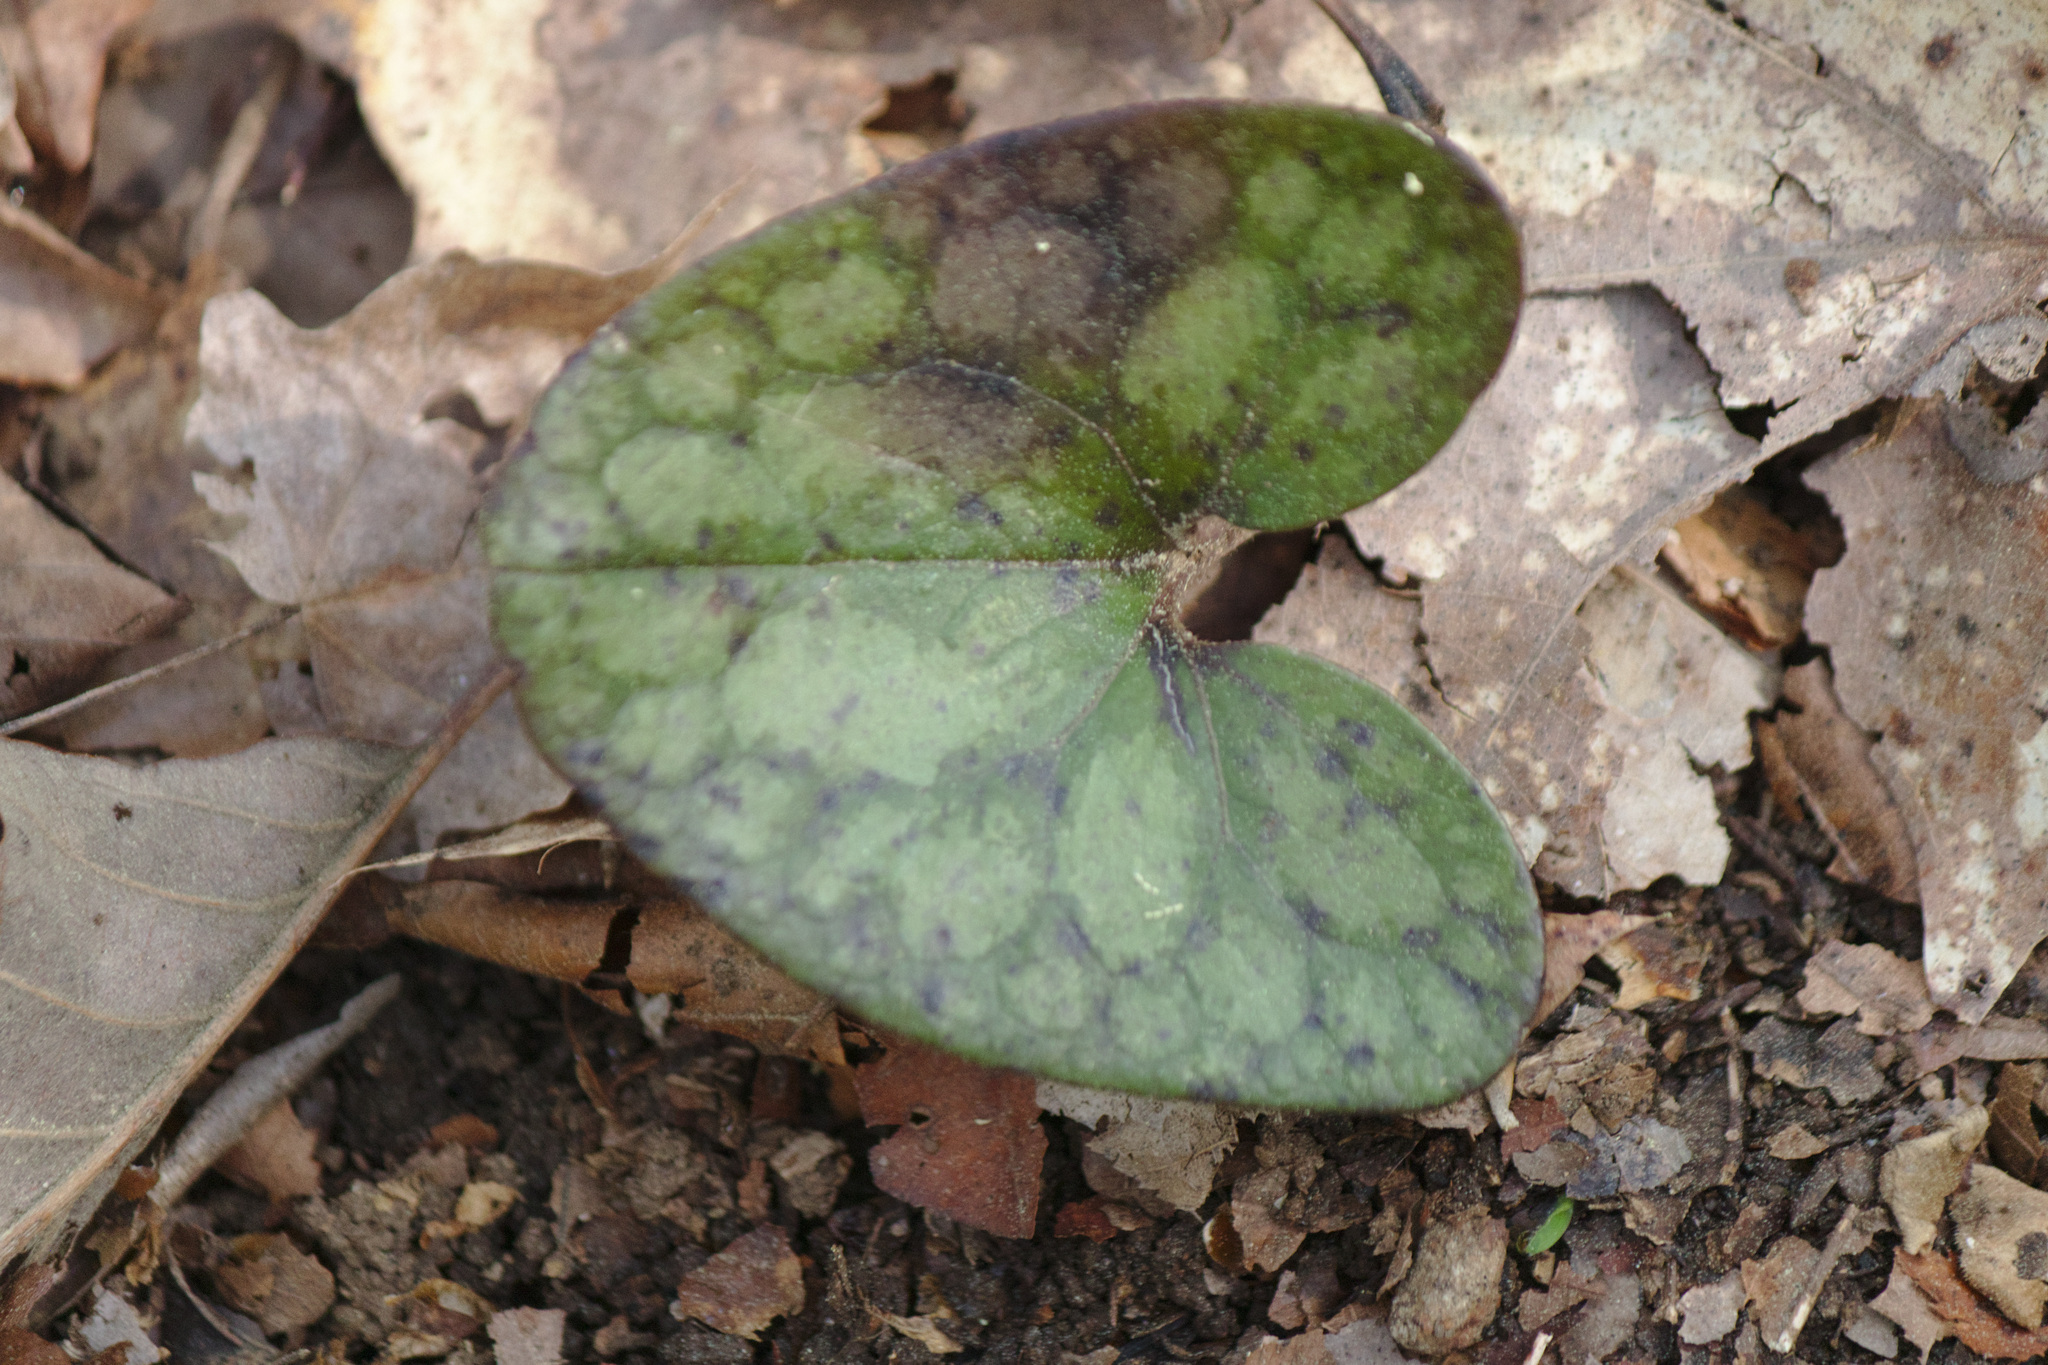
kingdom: Plantae
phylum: Tracheophyta
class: Magnoliopsida
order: Piperales
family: Aristolochiaceae
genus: Hexastylis
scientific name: Hexastylis arifolia
